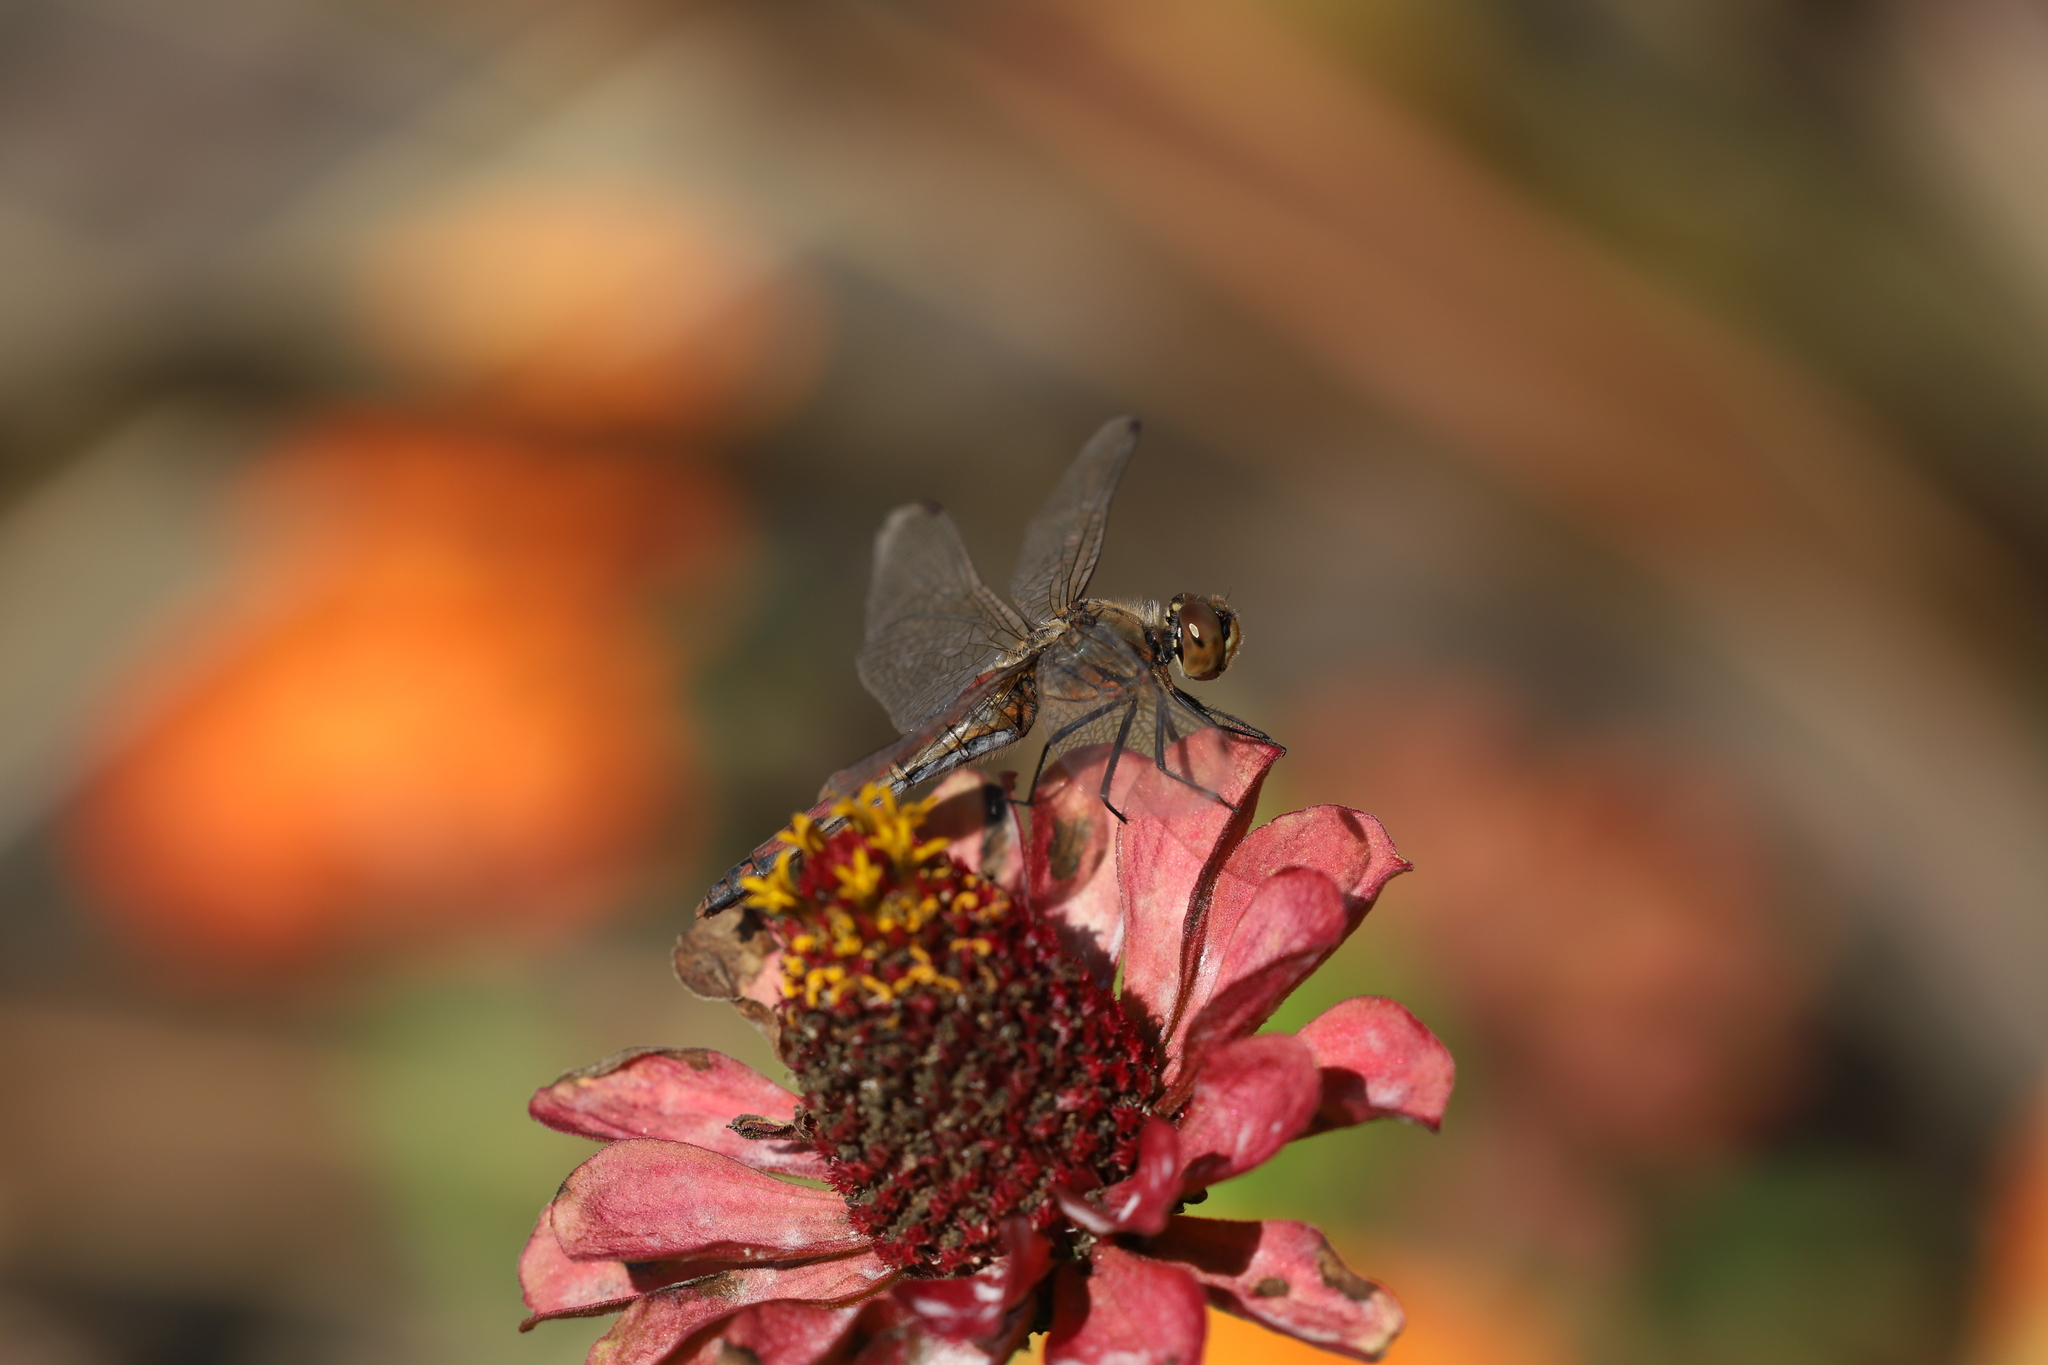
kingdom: Animalia
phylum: Arthropoda
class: Insecta
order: Odonata
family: Libellulidae
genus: Sympetrum
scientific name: Sympetrum frequens
